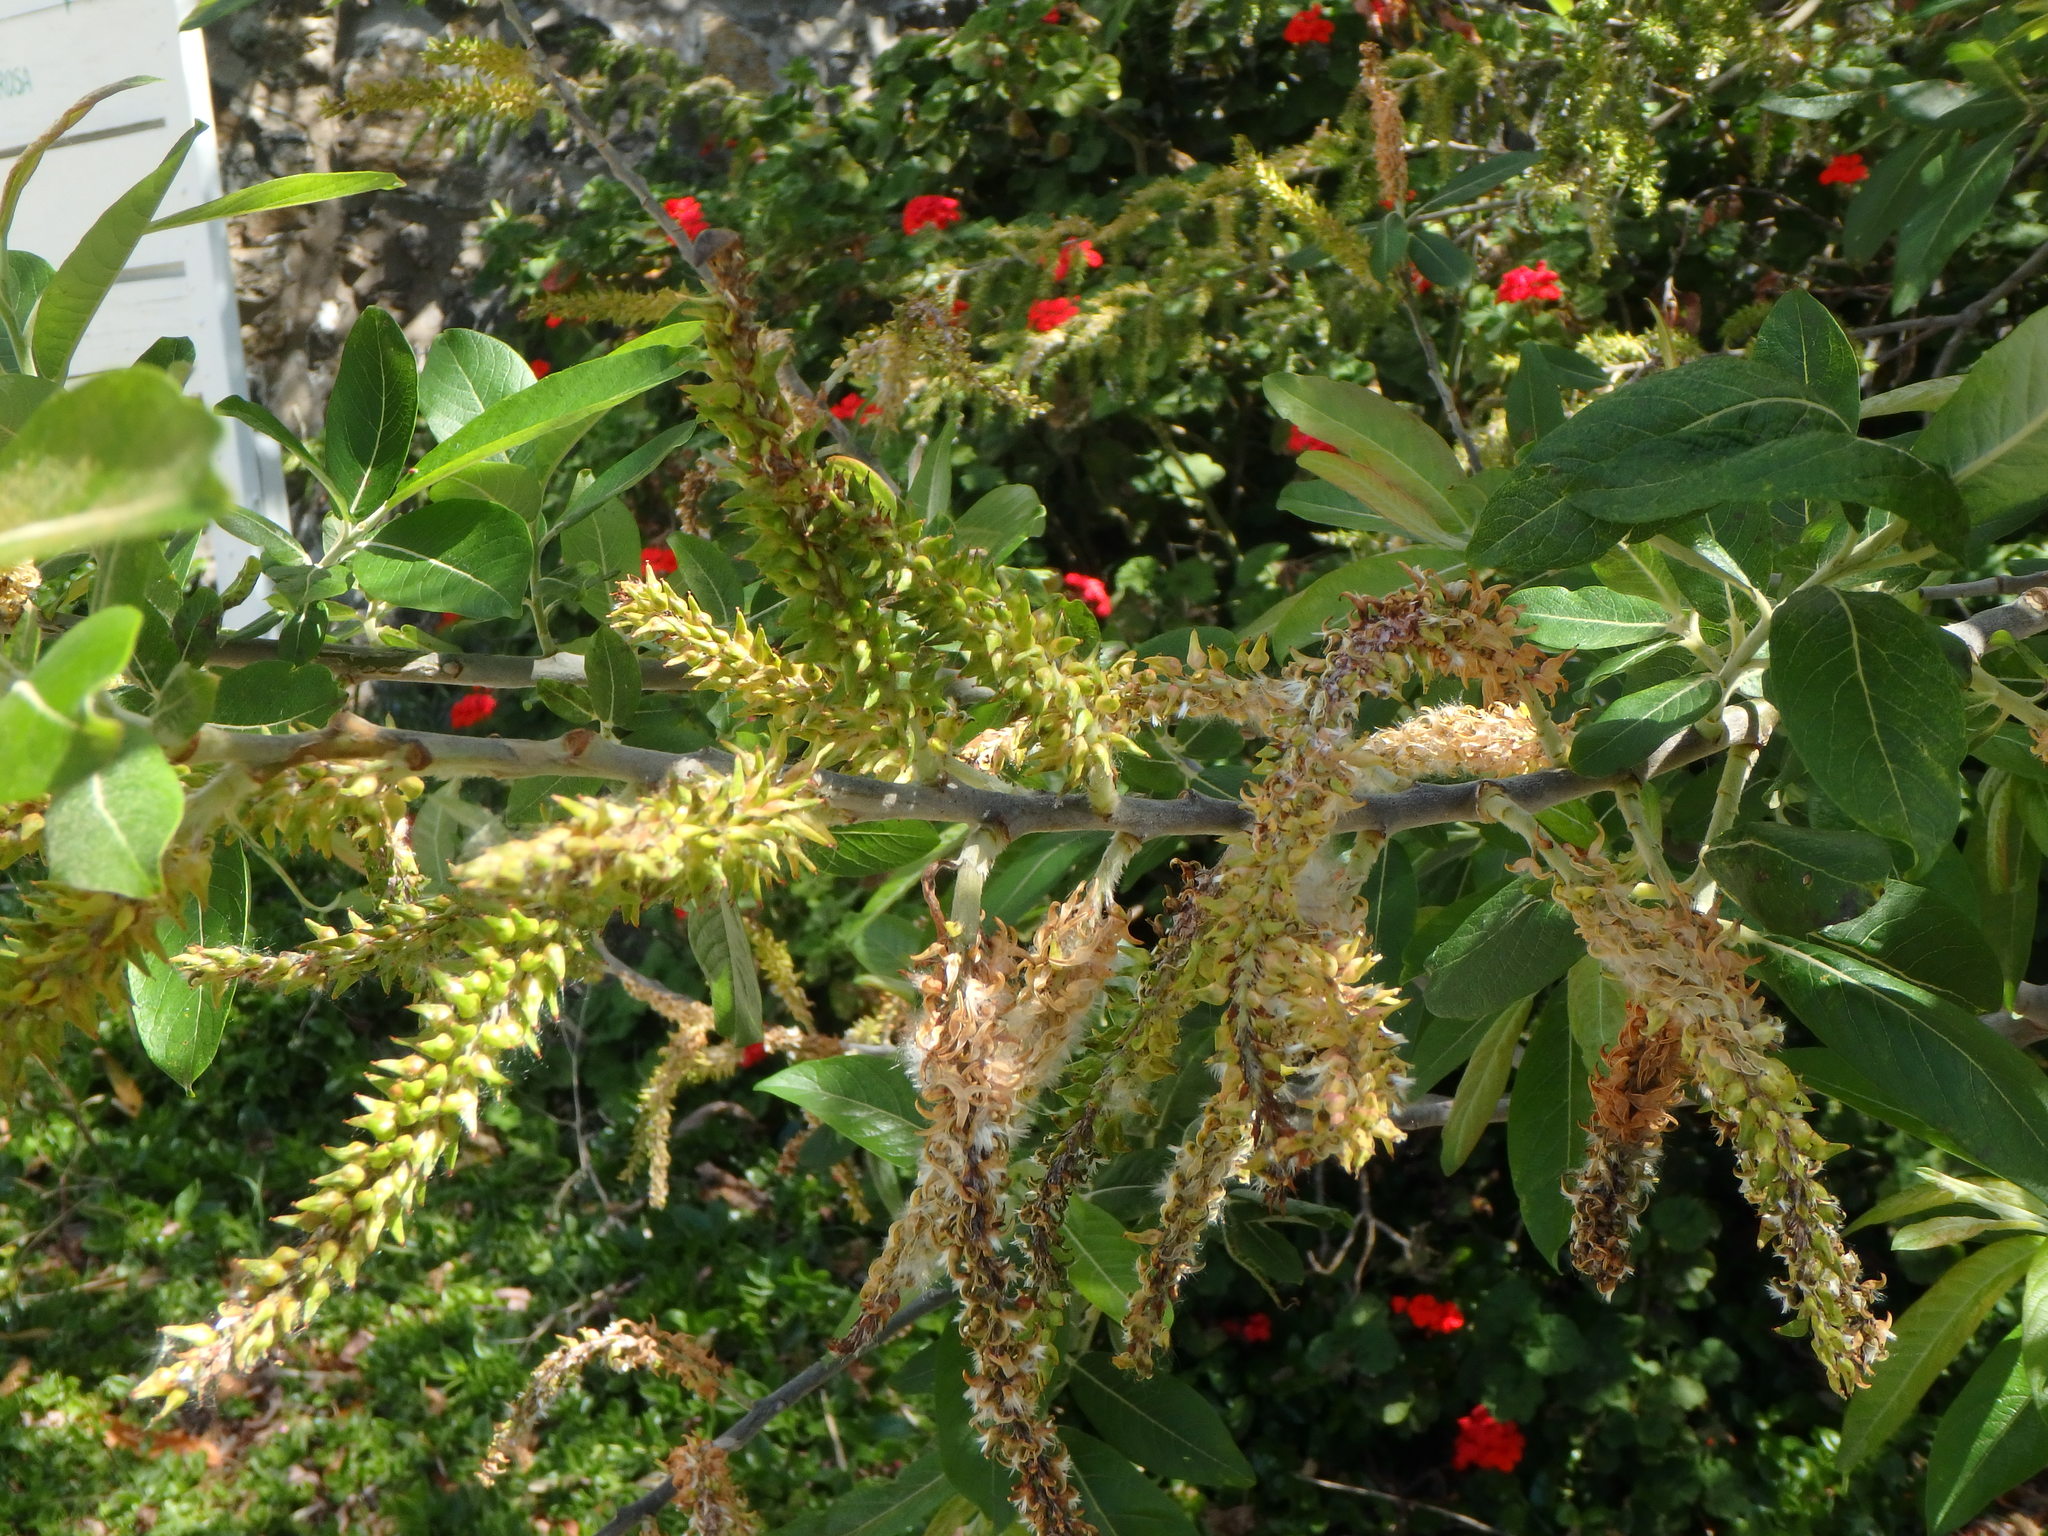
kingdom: Plantae
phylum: Tracheophyta
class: Magnoliopsida
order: Malpighiales
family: Salicaceae
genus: Salix
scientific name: Salix canariensis
